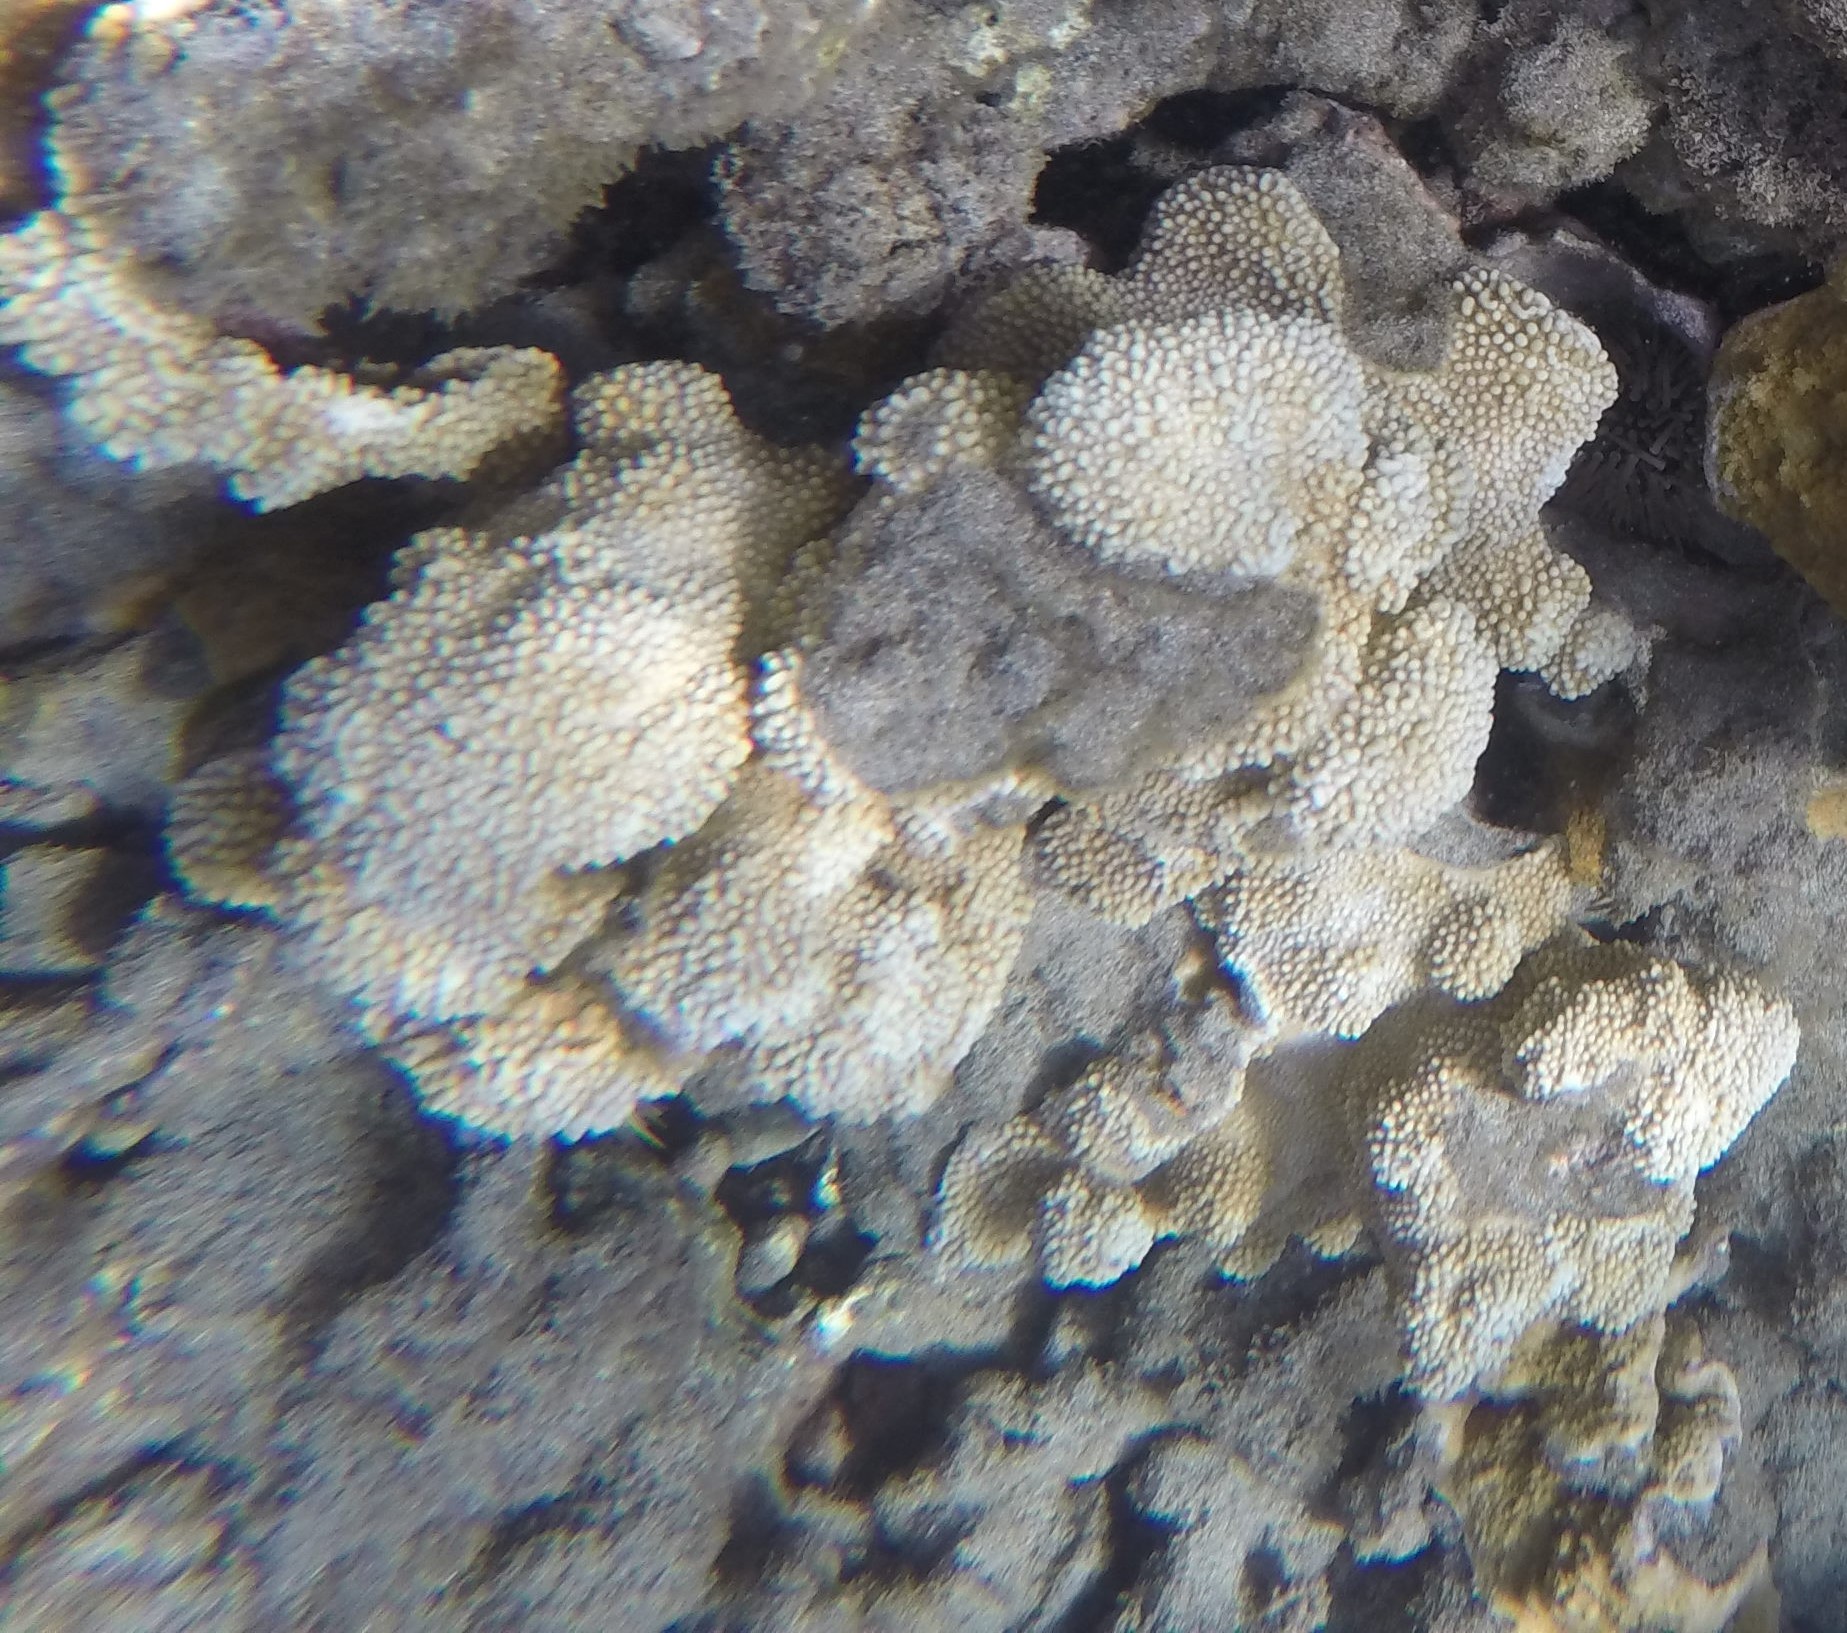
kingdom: Animalia
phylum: Cnidaria
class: Anthozoa
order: Scleractinia
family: Acroporidae
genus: Montipora
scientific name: Montipora capitata
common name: Pore coral
